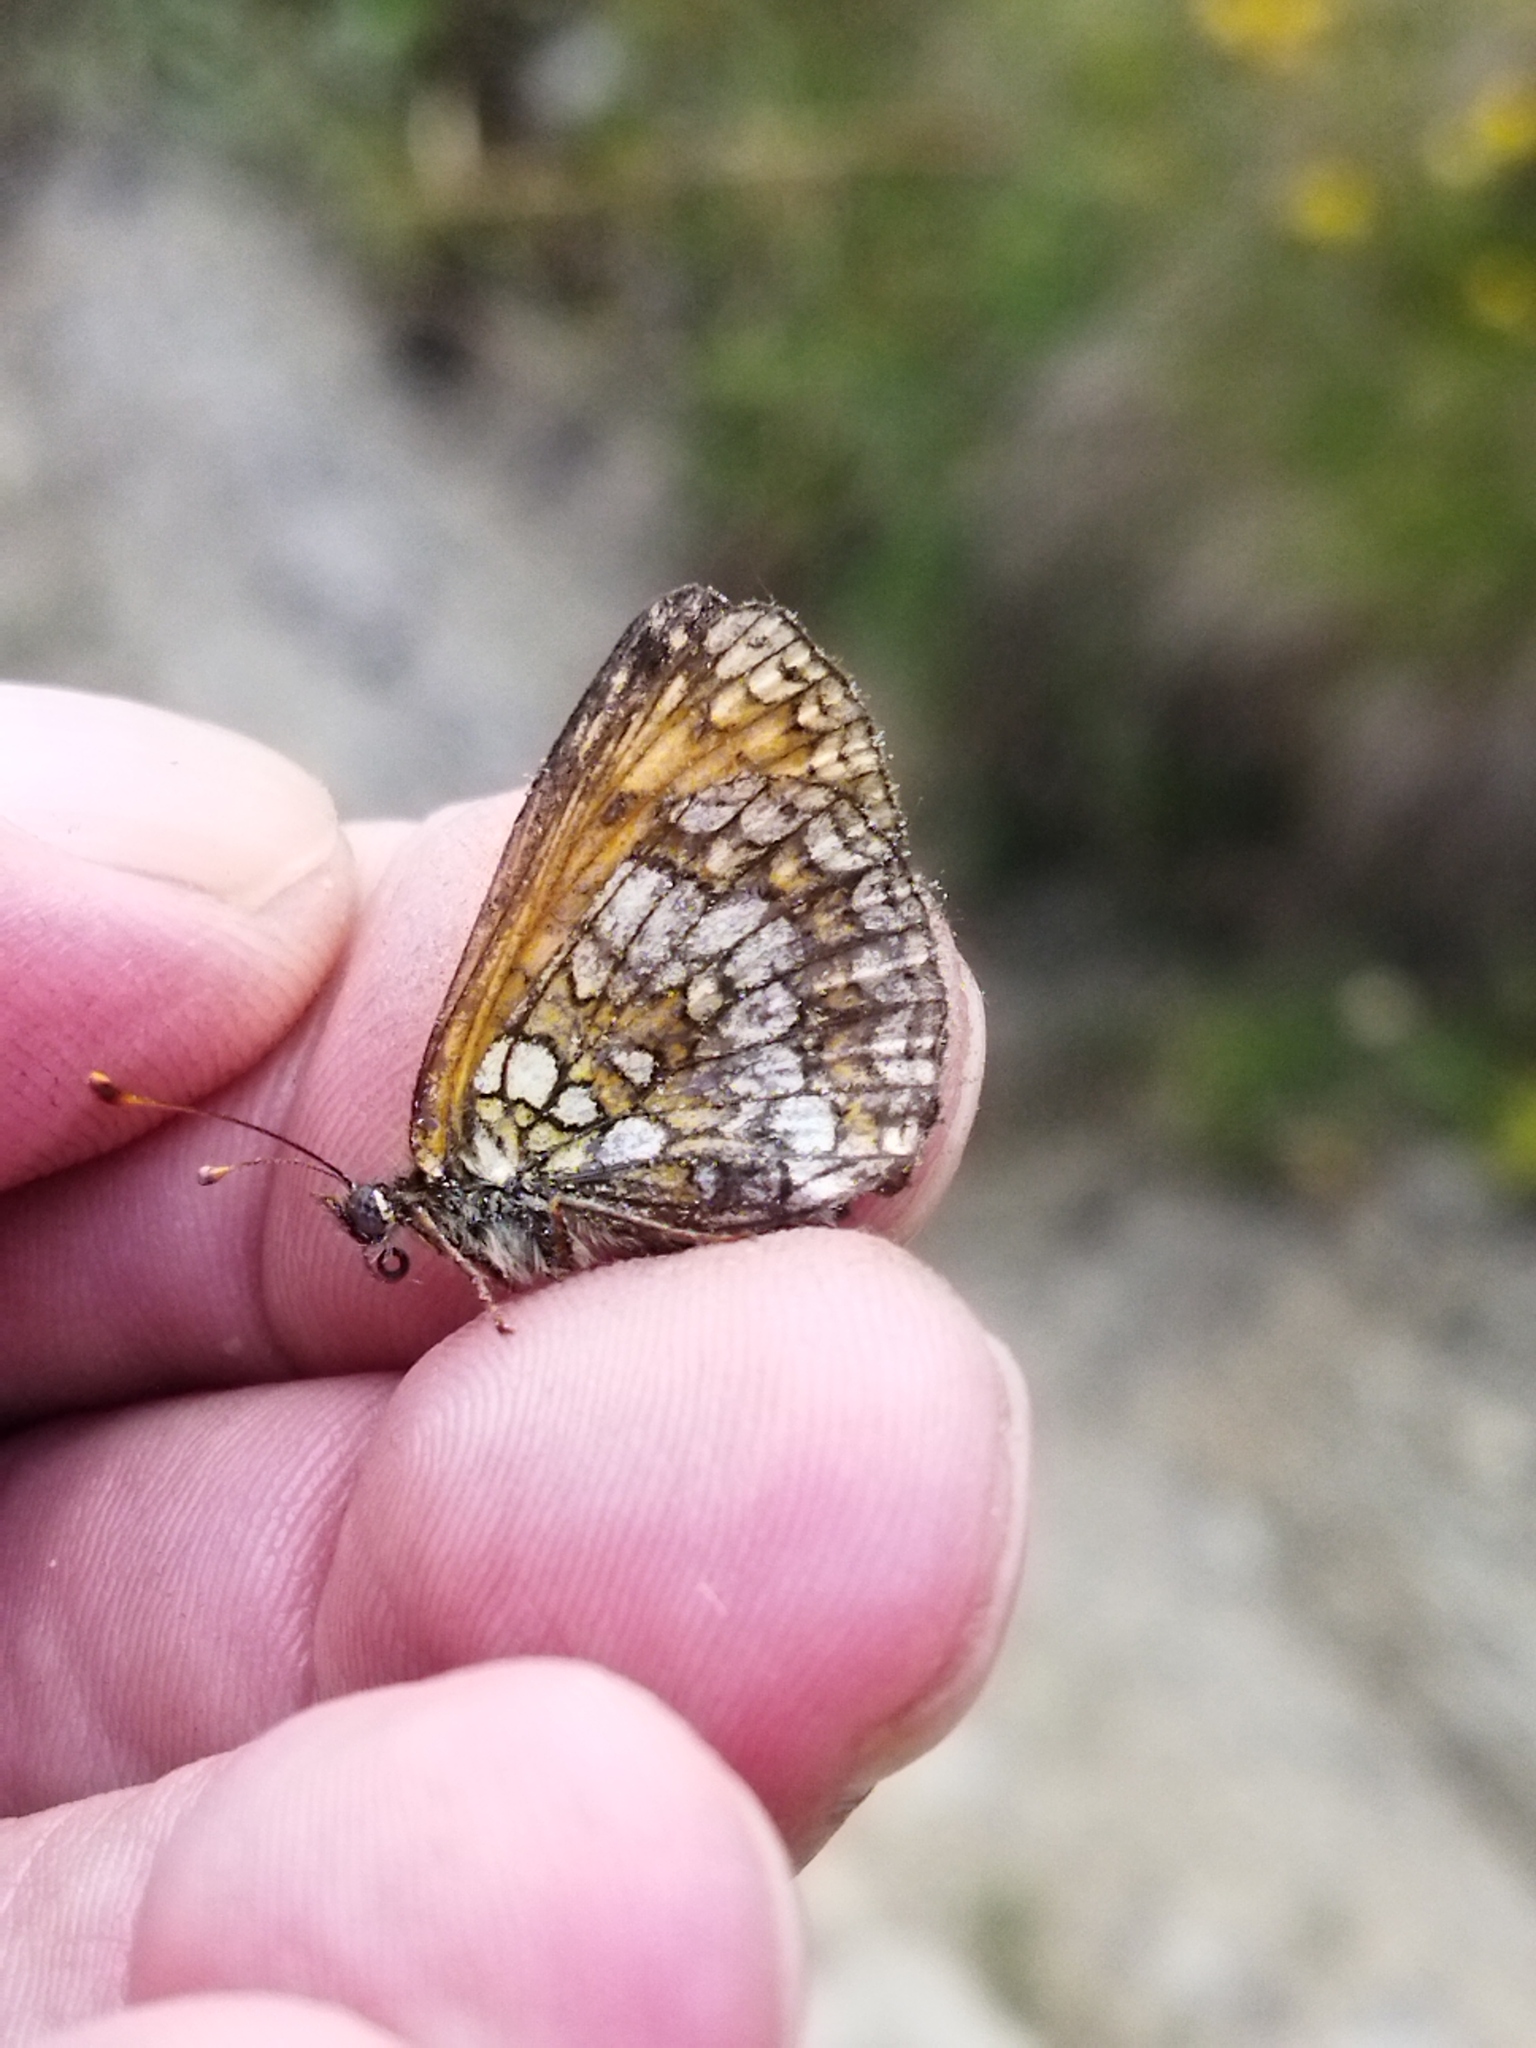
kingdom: Animalia
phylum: Arthropoda
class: Insecta
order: Lepidoptera
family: Nymphalidae
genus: Melitaea
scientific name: Melitaea athalia
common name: Heath fritillary
